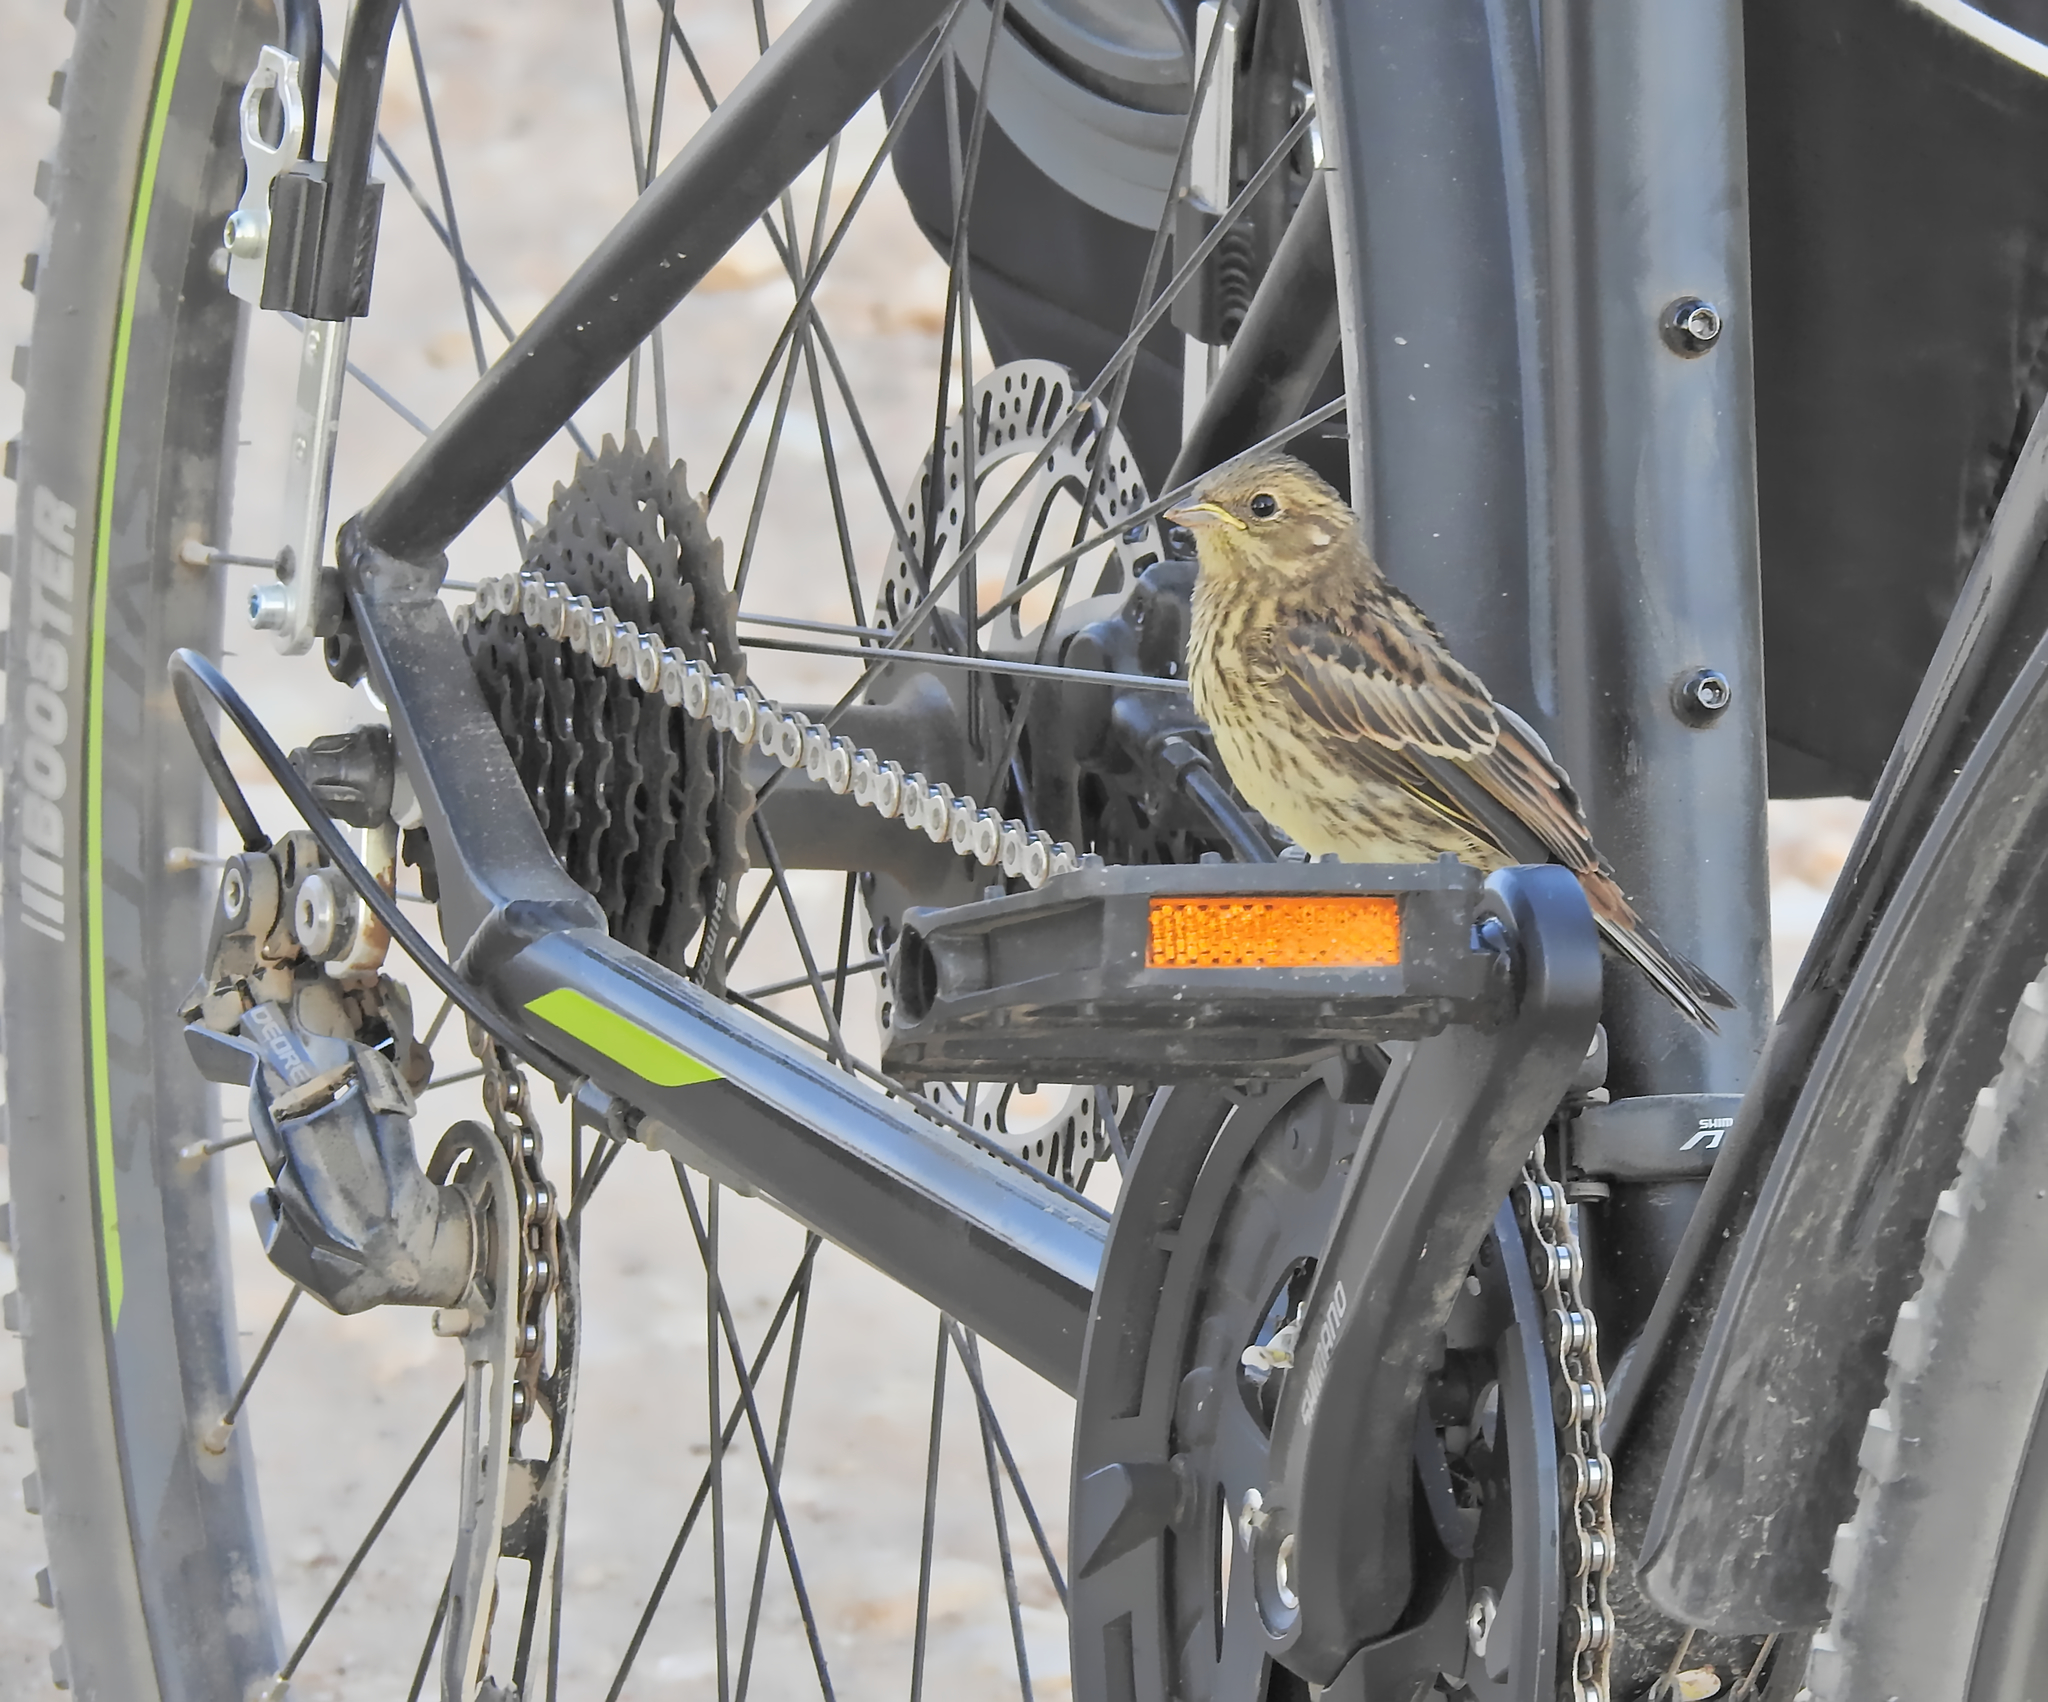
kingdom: Animalia
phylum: Chordata
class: Aves
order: Passeriformes
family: Emberizidae
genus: Emberiza
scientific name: Emberiza citrinella
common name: Yellowhammer
